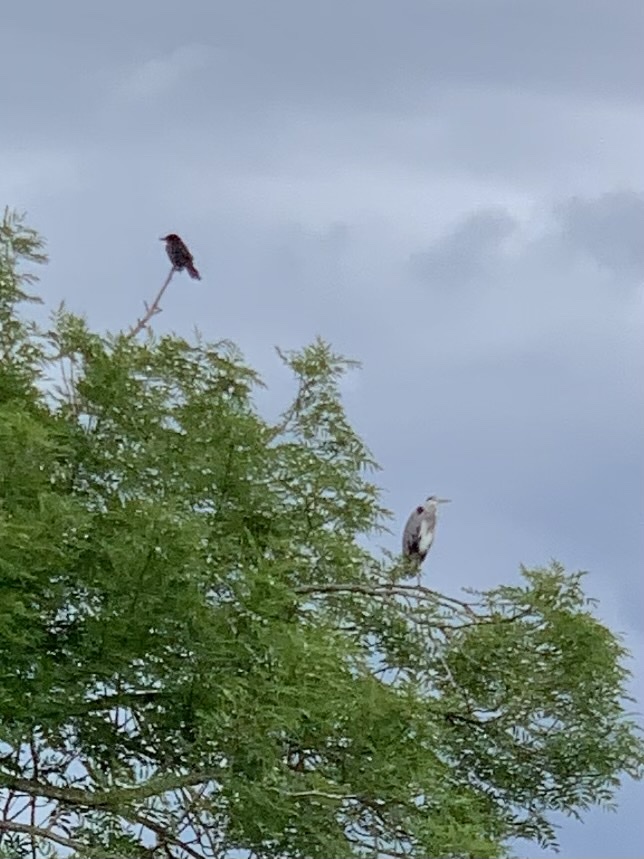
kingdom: Animalia
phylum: Chordata
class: Aves
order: Pelecaniformes
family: Ardeidae
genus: Ardea
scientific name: Ardea cinerea
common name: Grey heron
